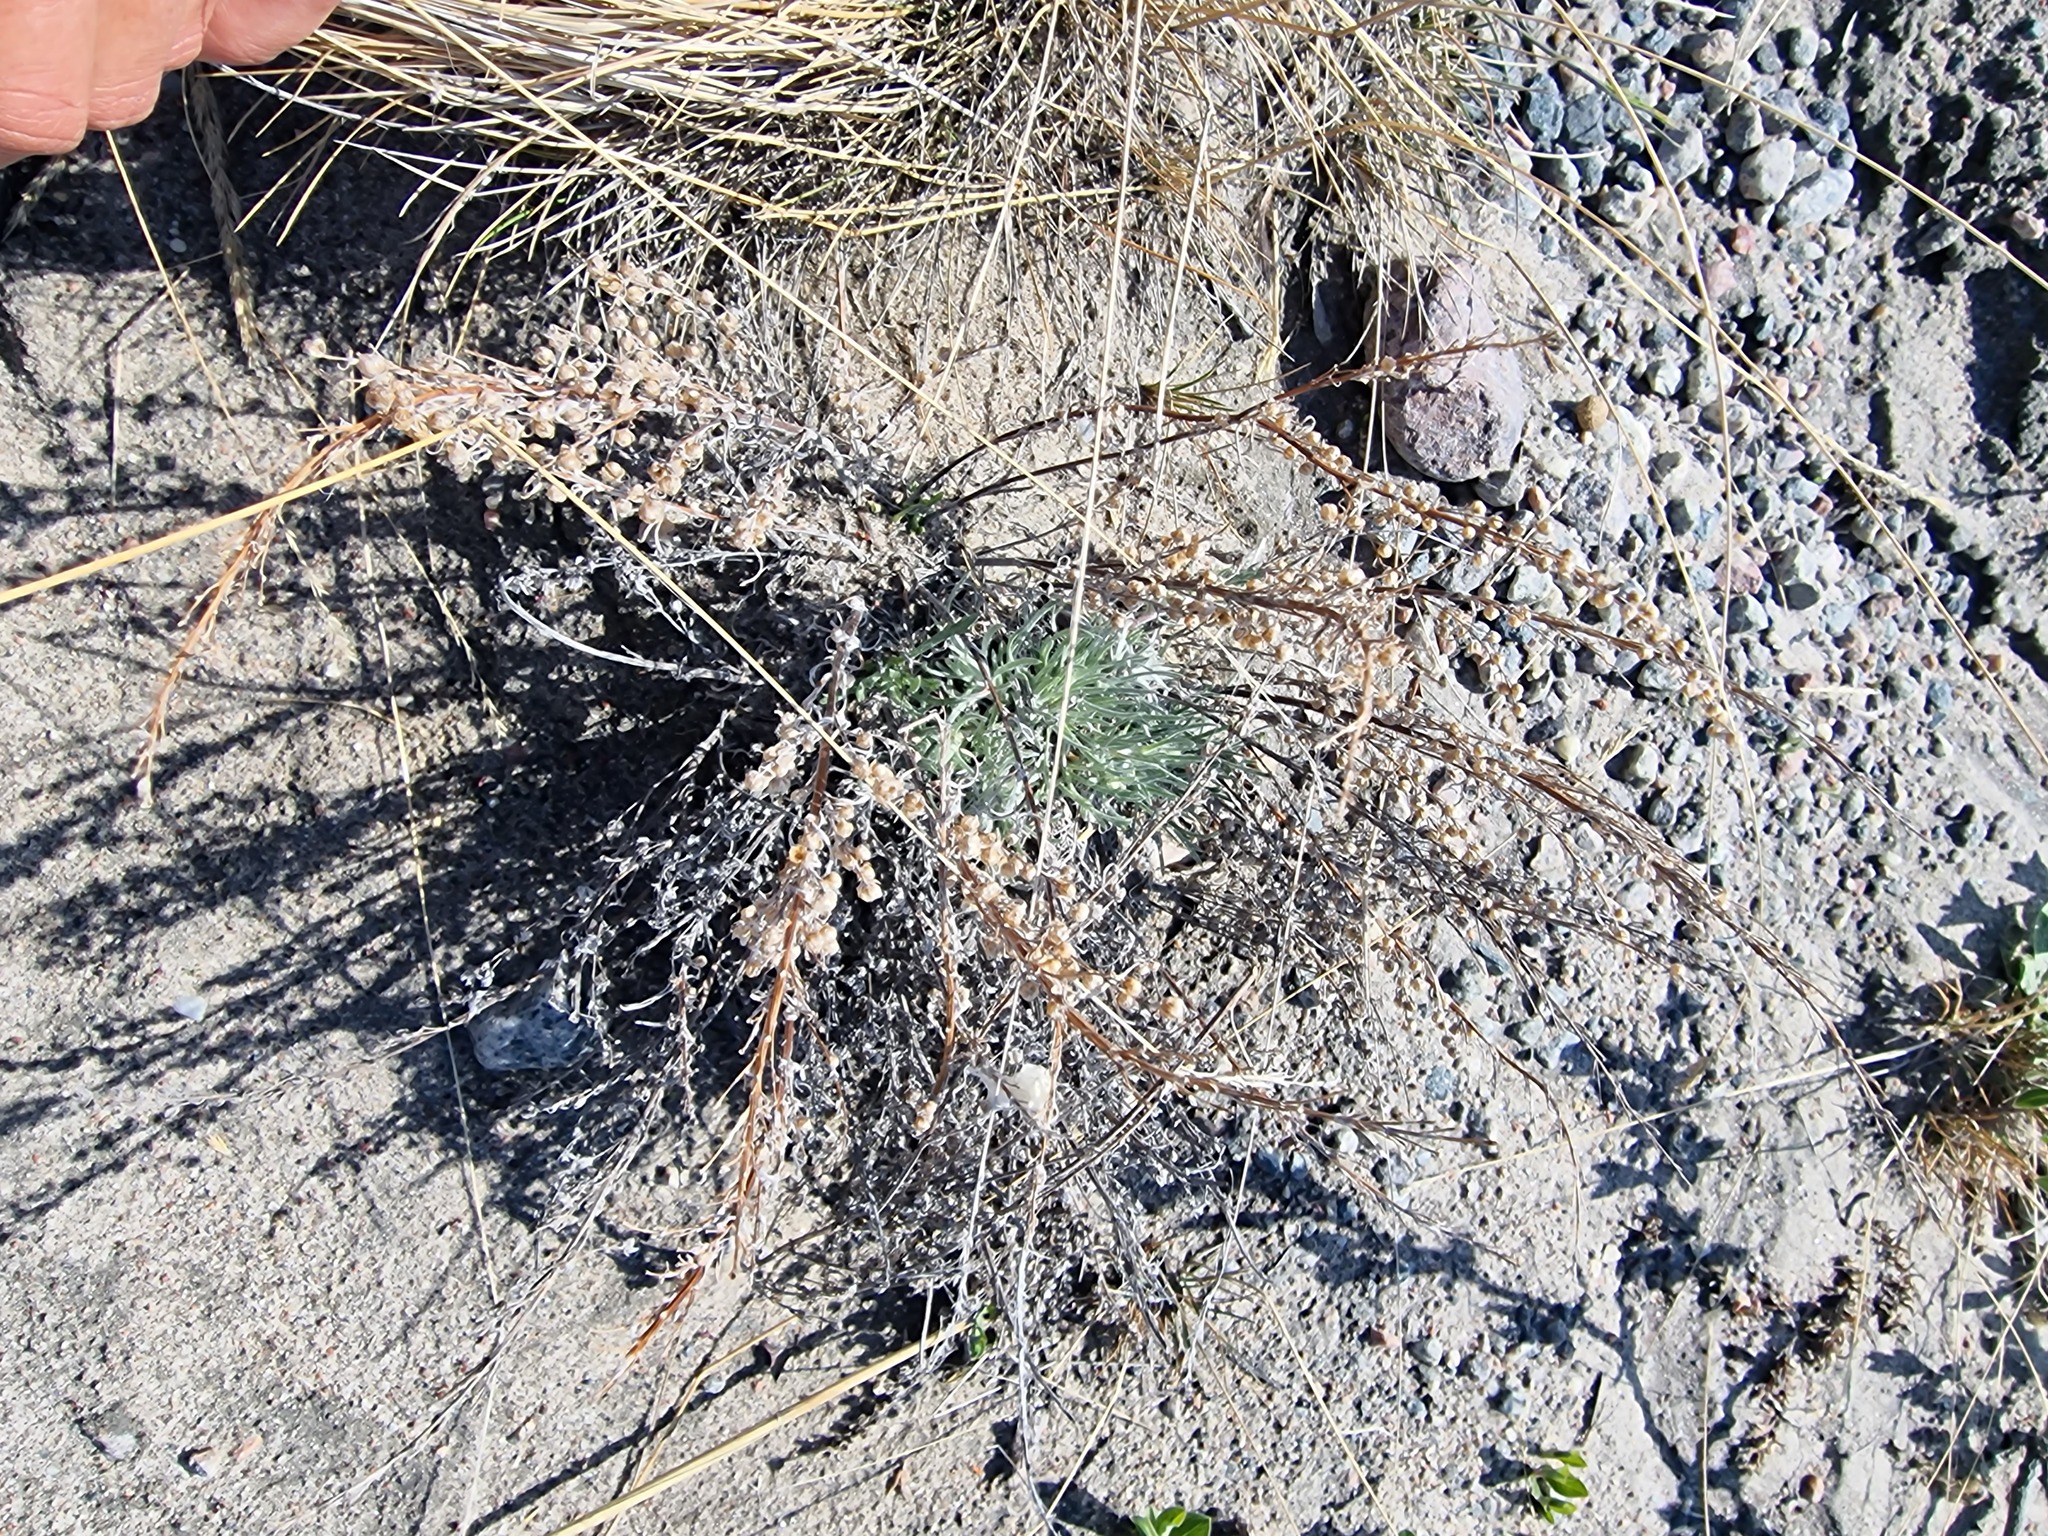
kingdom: Plantae
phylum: Tracheophyta
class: Magnoliopsida
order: Asterales
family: Asteraceae
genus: Artemisia
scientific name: Artemisia borealis
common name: Boreal sage
